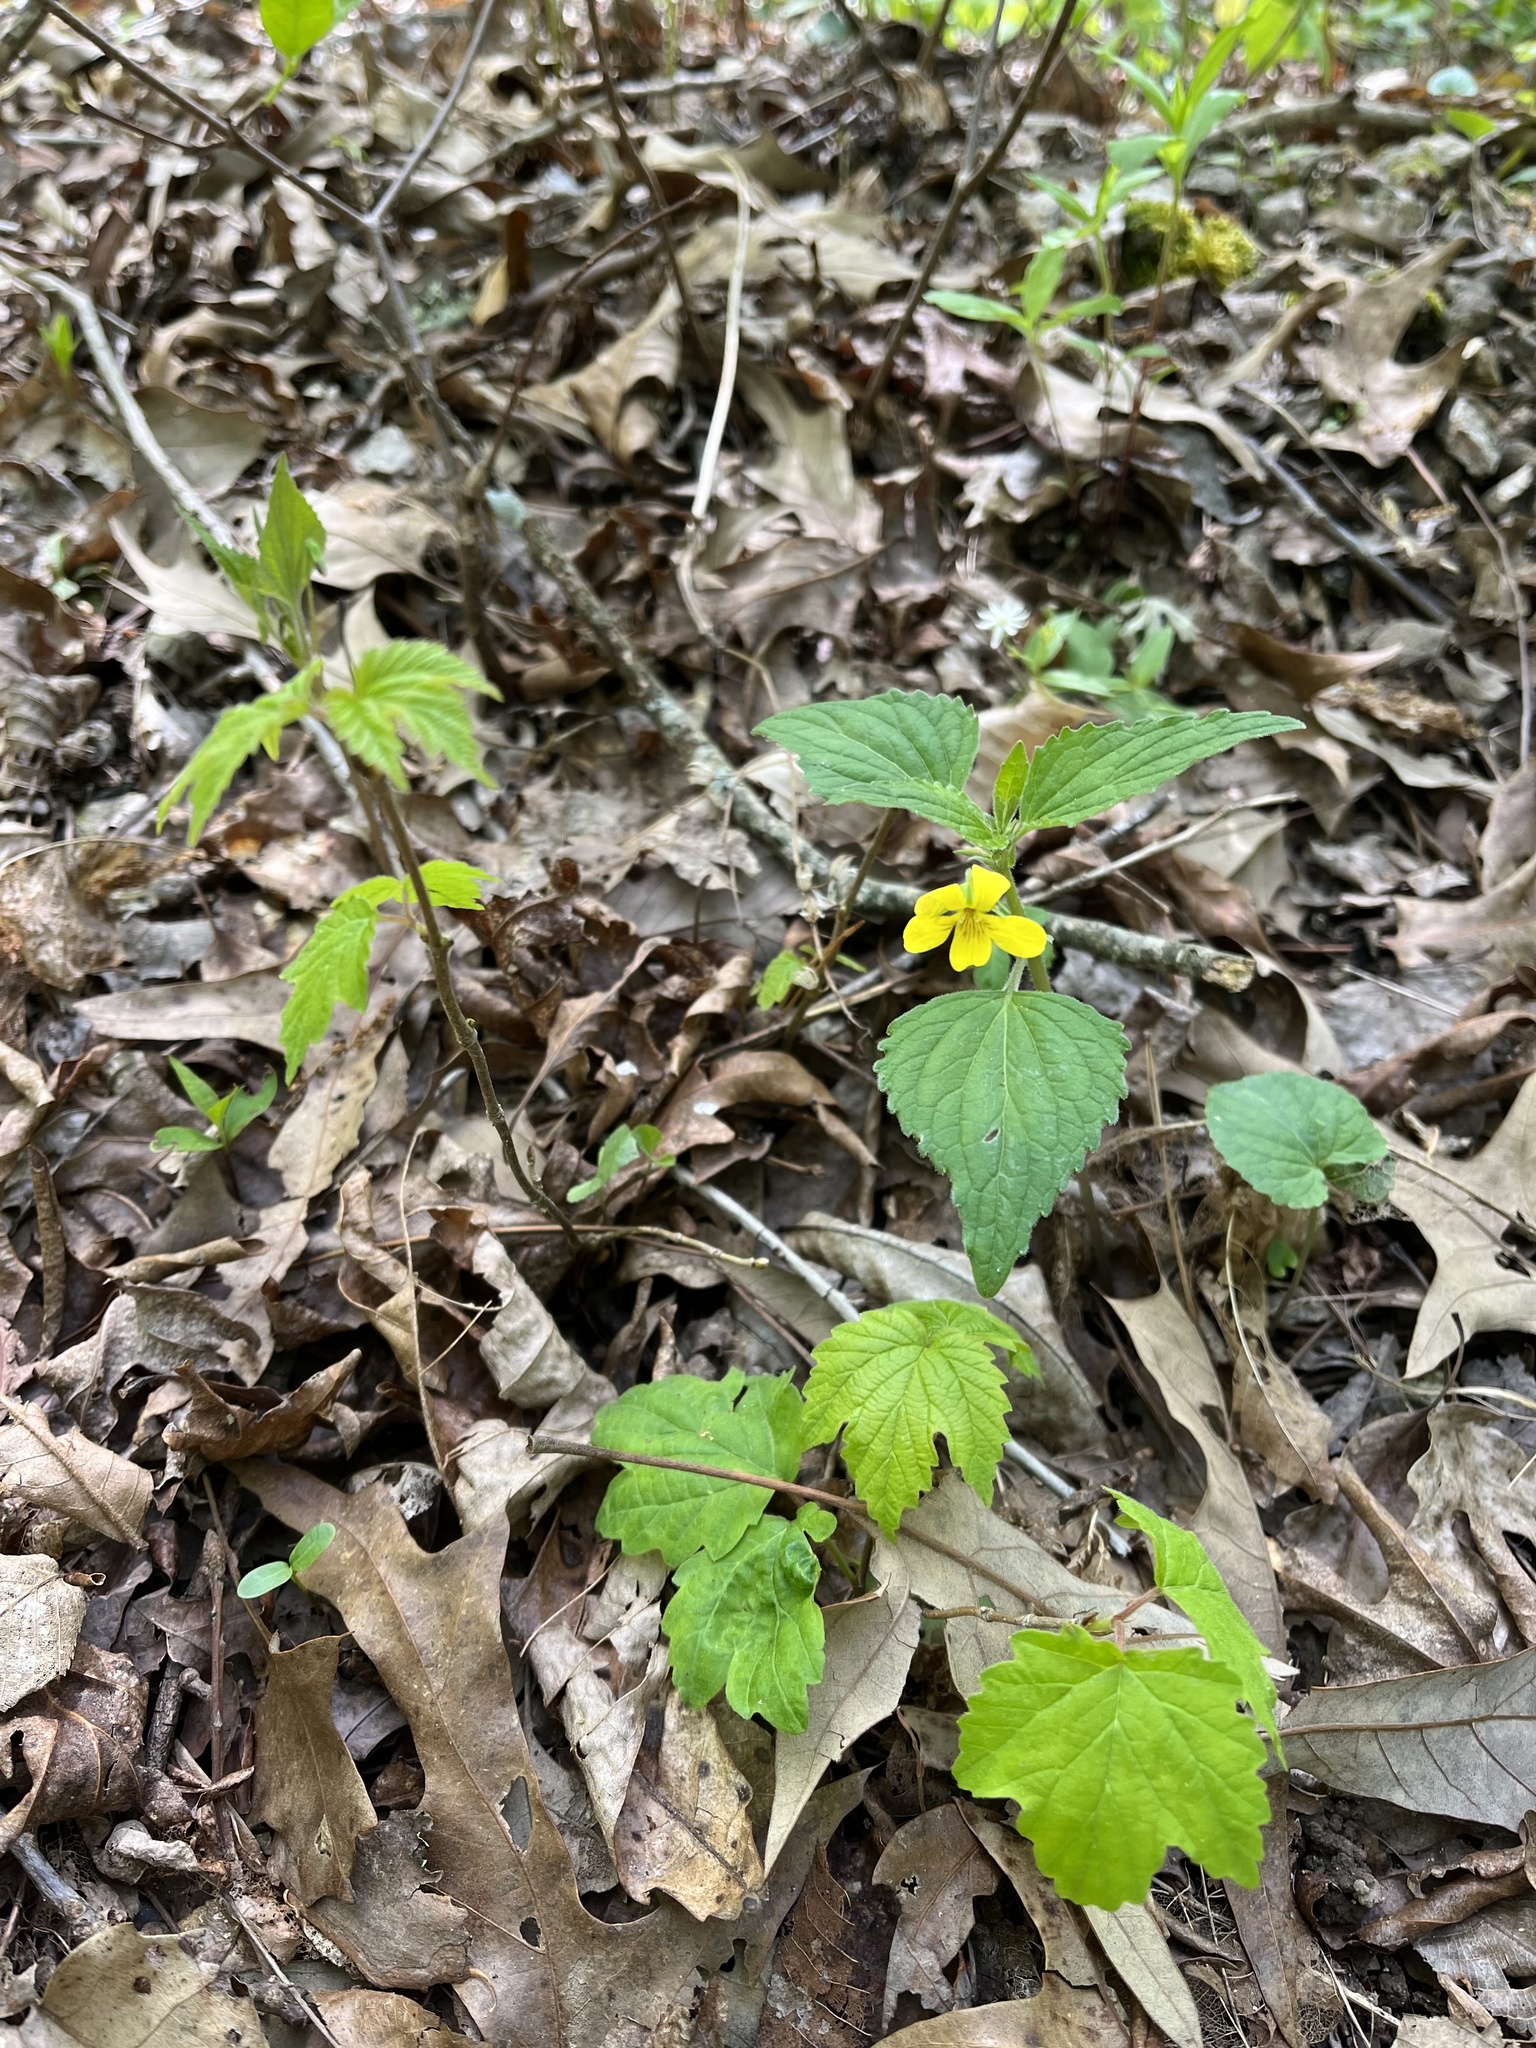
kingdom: Plantae
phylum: Tracheophyta
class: Magnoliopsida
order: Malpighiales
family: Violaceae
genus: Viola
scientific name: Viola glaberrima
